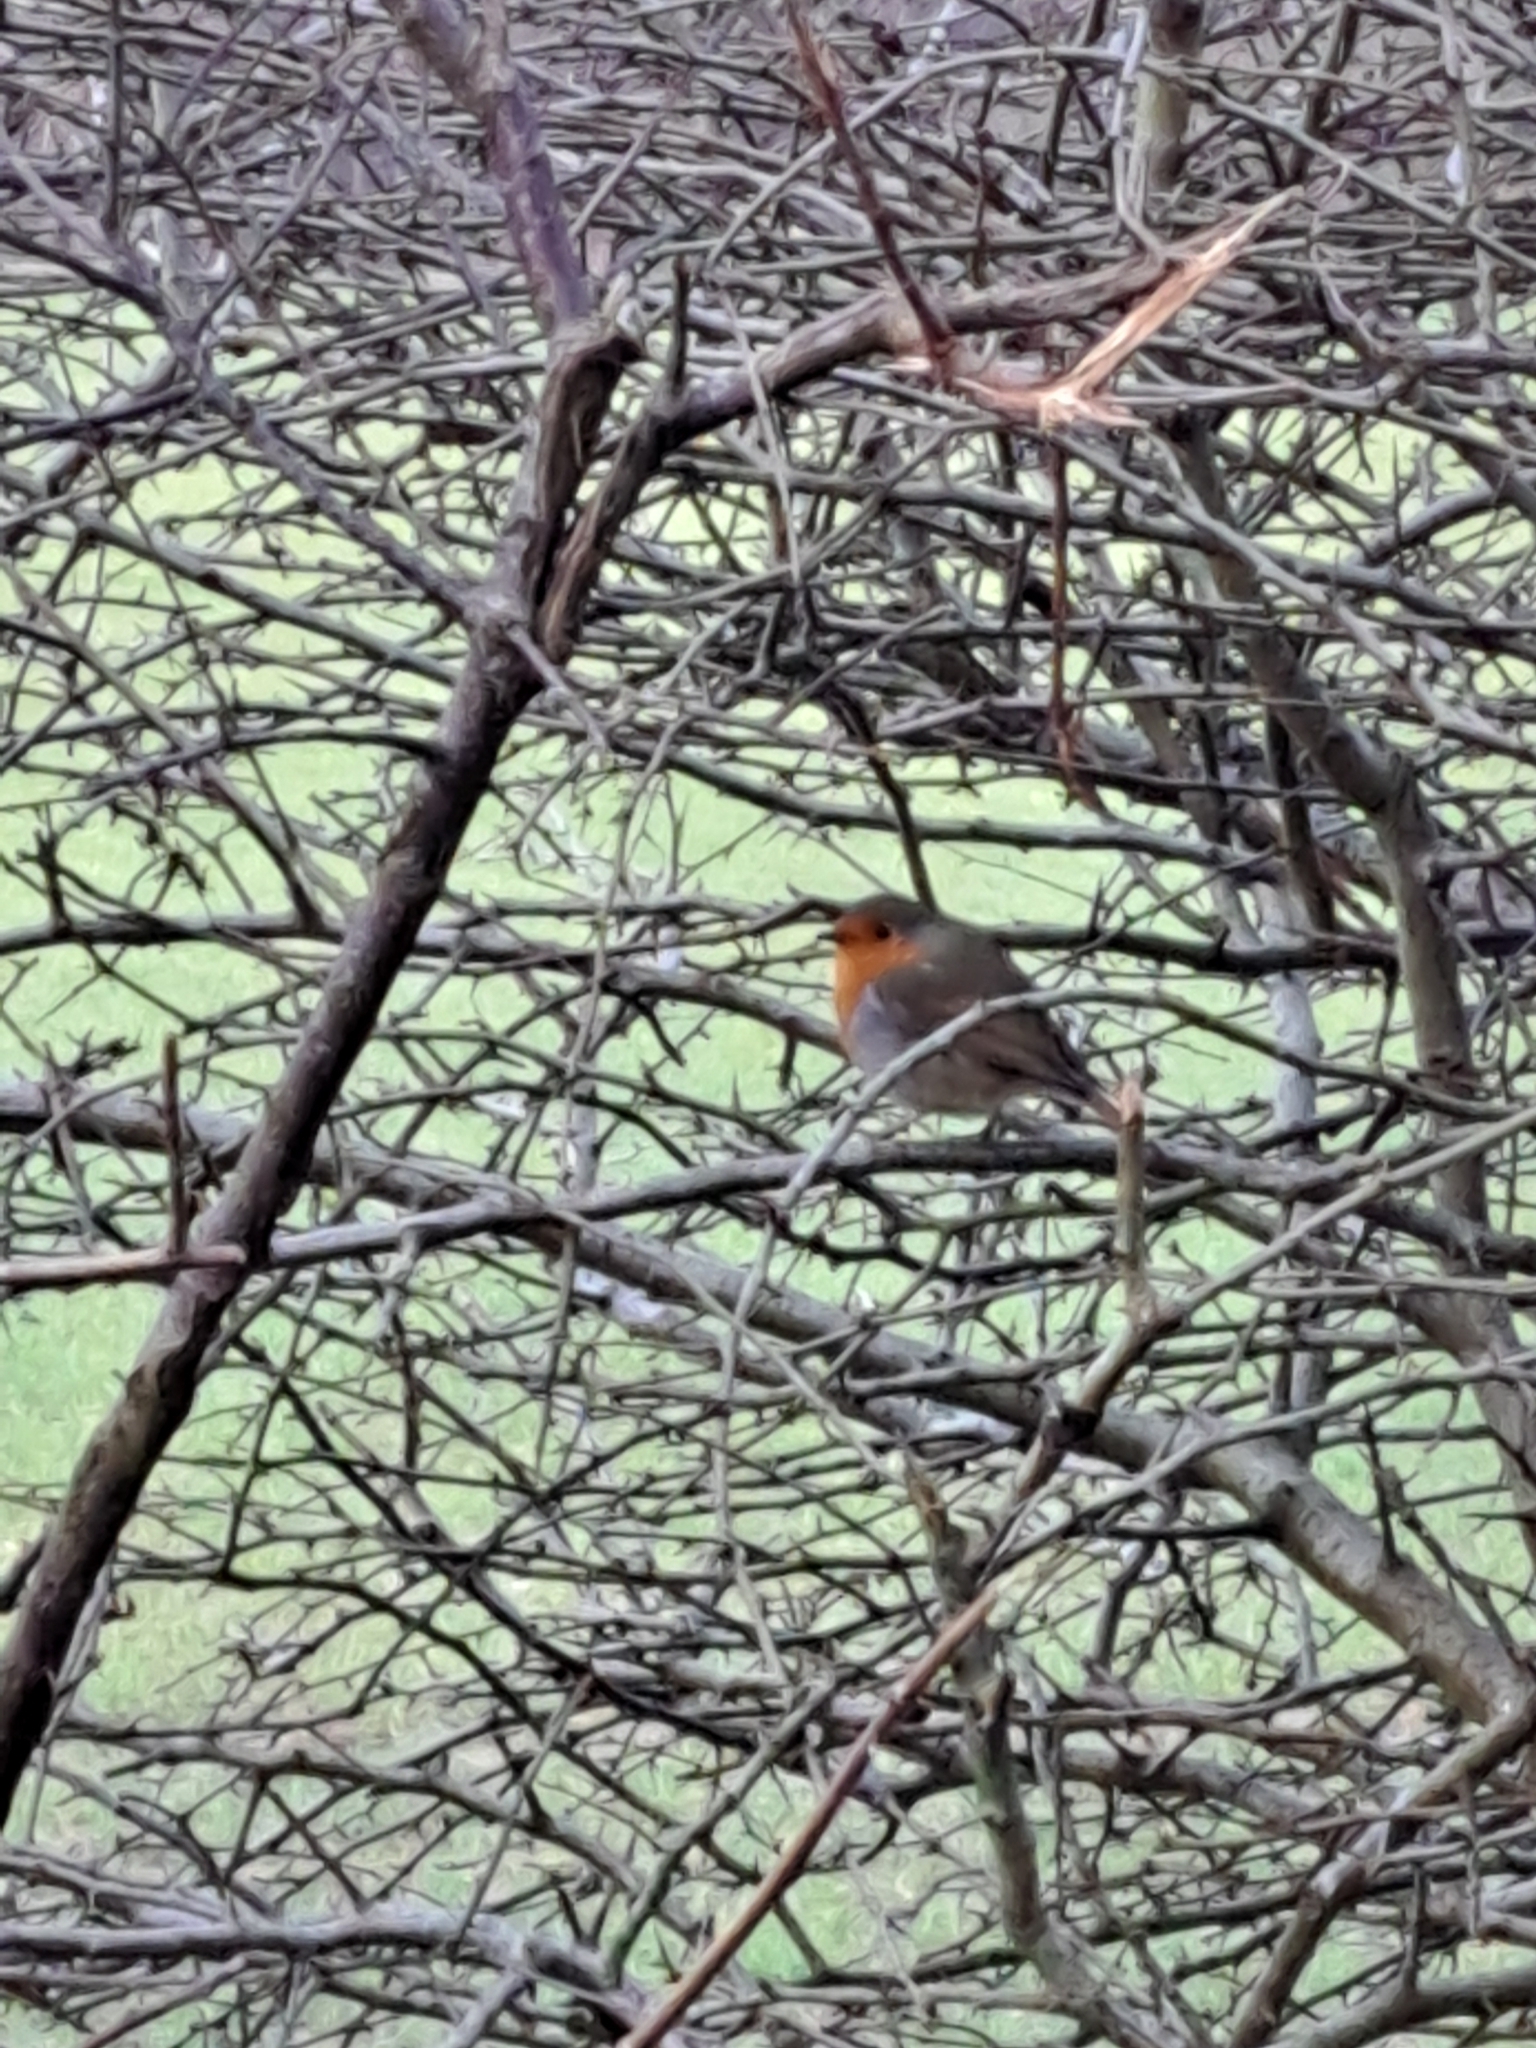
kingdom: Animalia
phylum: Chordata
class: Aves
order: Passeriformes
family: Muscicapidae
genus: Erithacus
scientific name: Erithacus rubecula
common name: European robin
